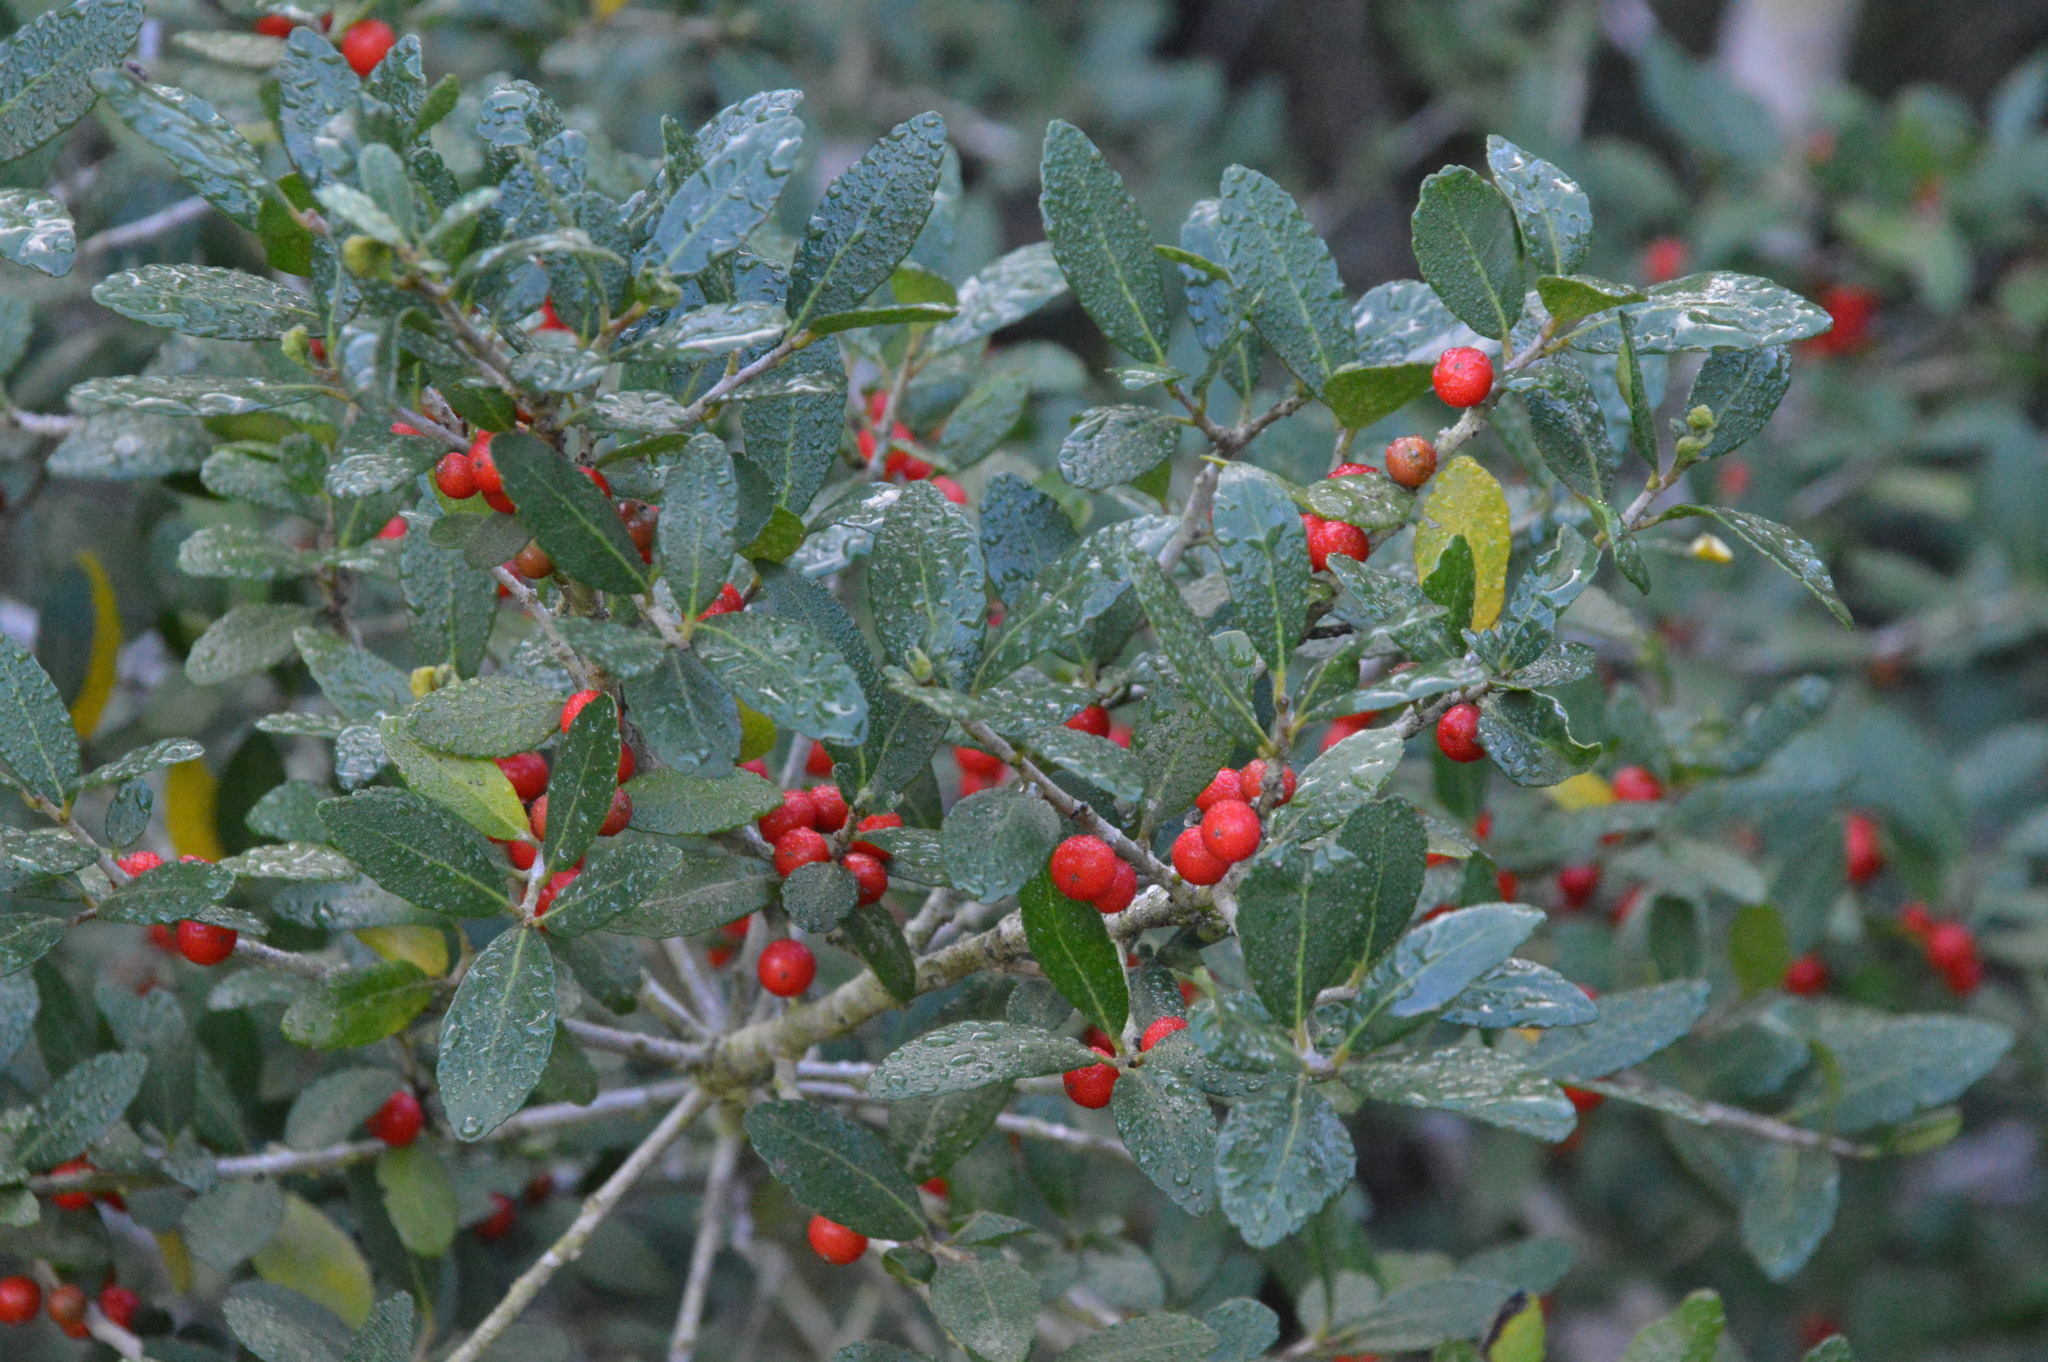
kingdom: Plantae
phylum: Tracheophyta
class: Magnoliopsida
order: Aquifoliales
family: Aquifoliaceae
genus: Ilex
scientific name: Ilex vomitoria
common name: Yaupon holly
